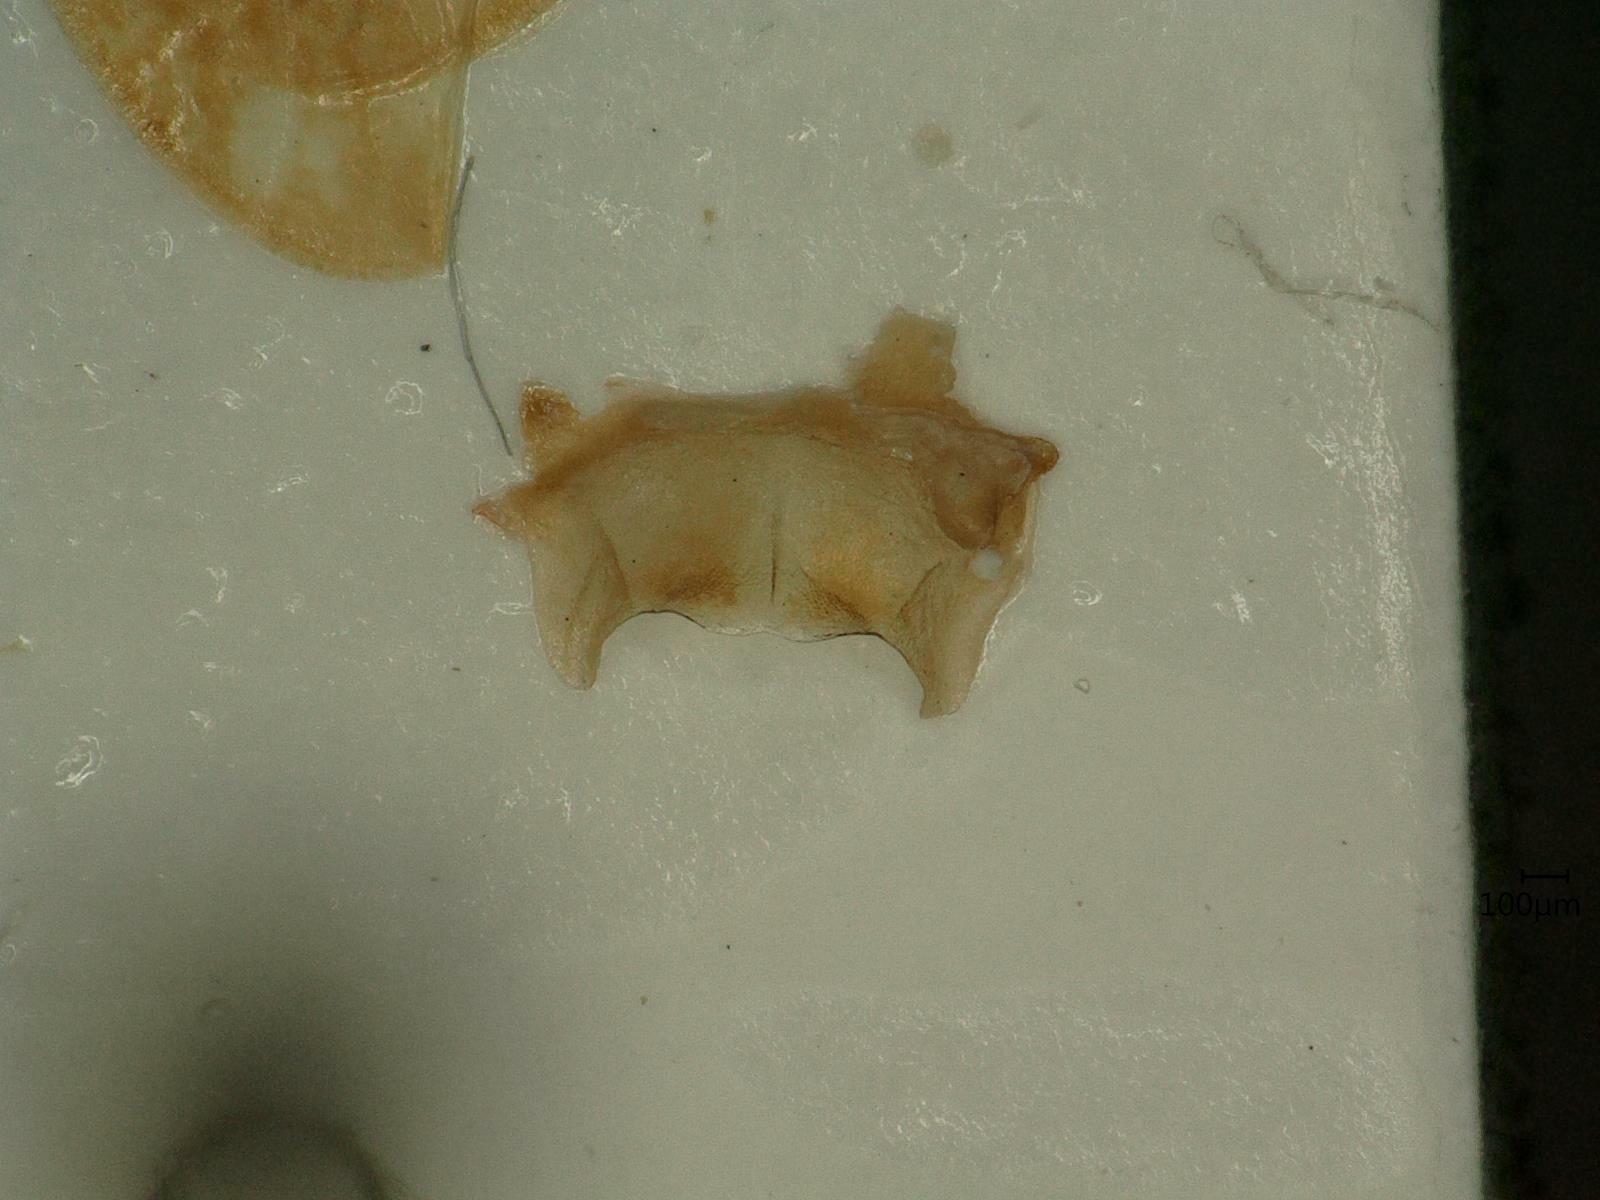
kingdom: Animalia
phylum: Arthropoda
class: Insecta
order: Hemiptera
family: Cicadellidae
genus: Allygus
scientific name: Allygus modestus
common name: Leafhopper
